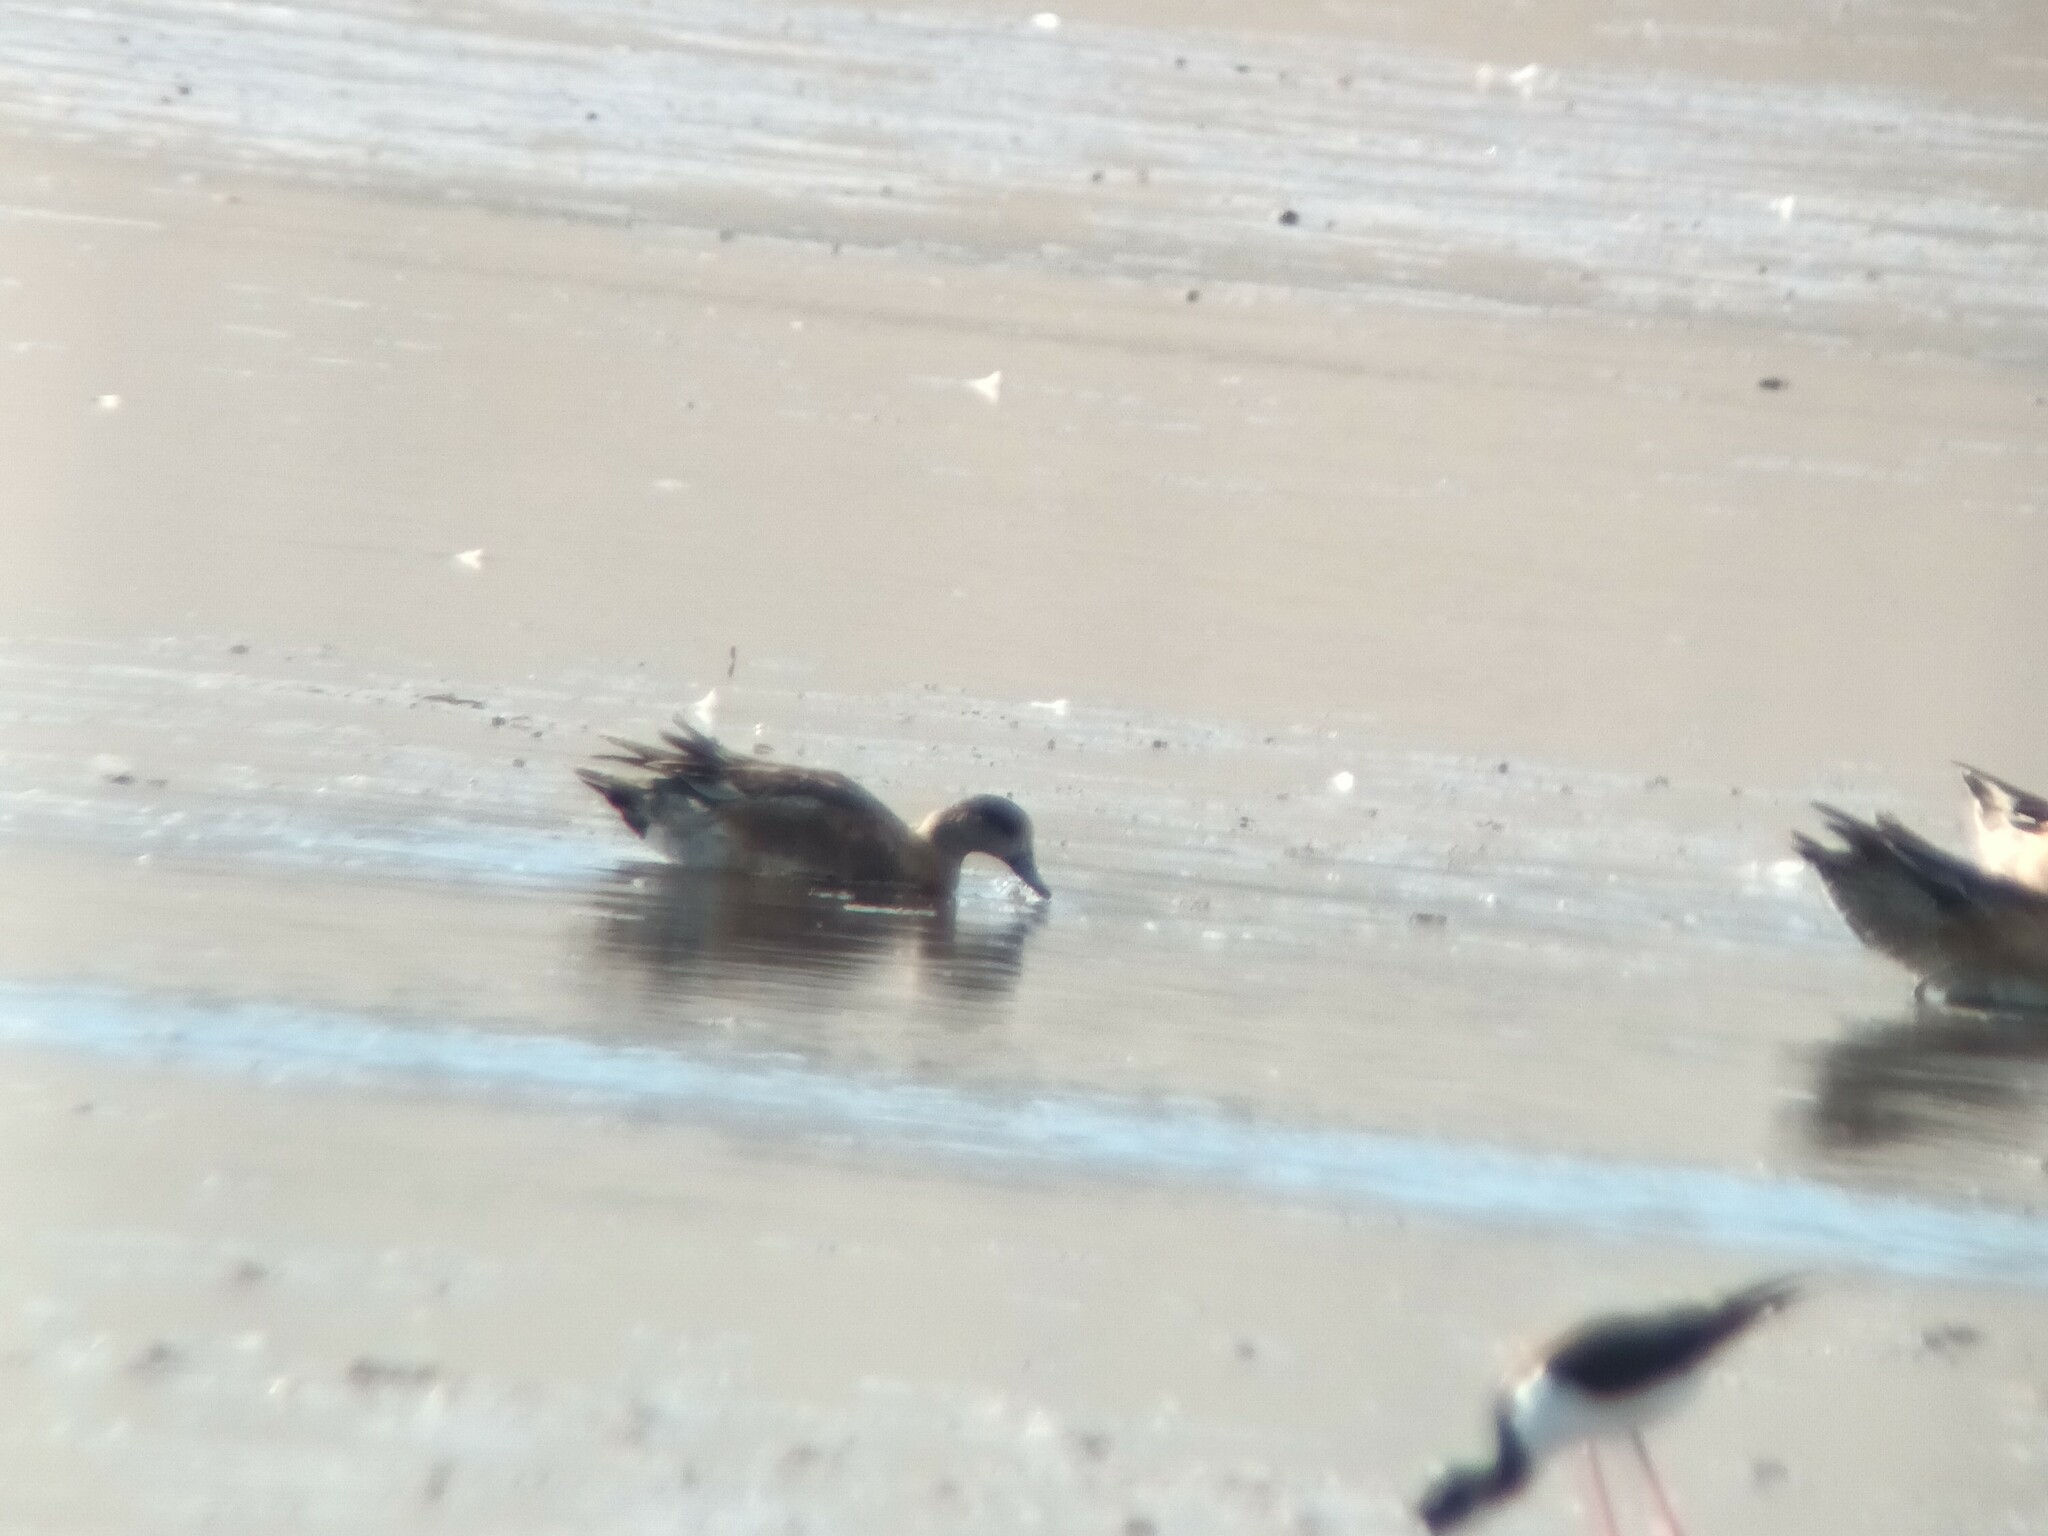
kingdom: Animalia
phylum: Chordata
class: Aves
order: Anseriformes
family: Anatidae
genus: Mareca
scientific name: Mareca americana
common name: American wigeon
